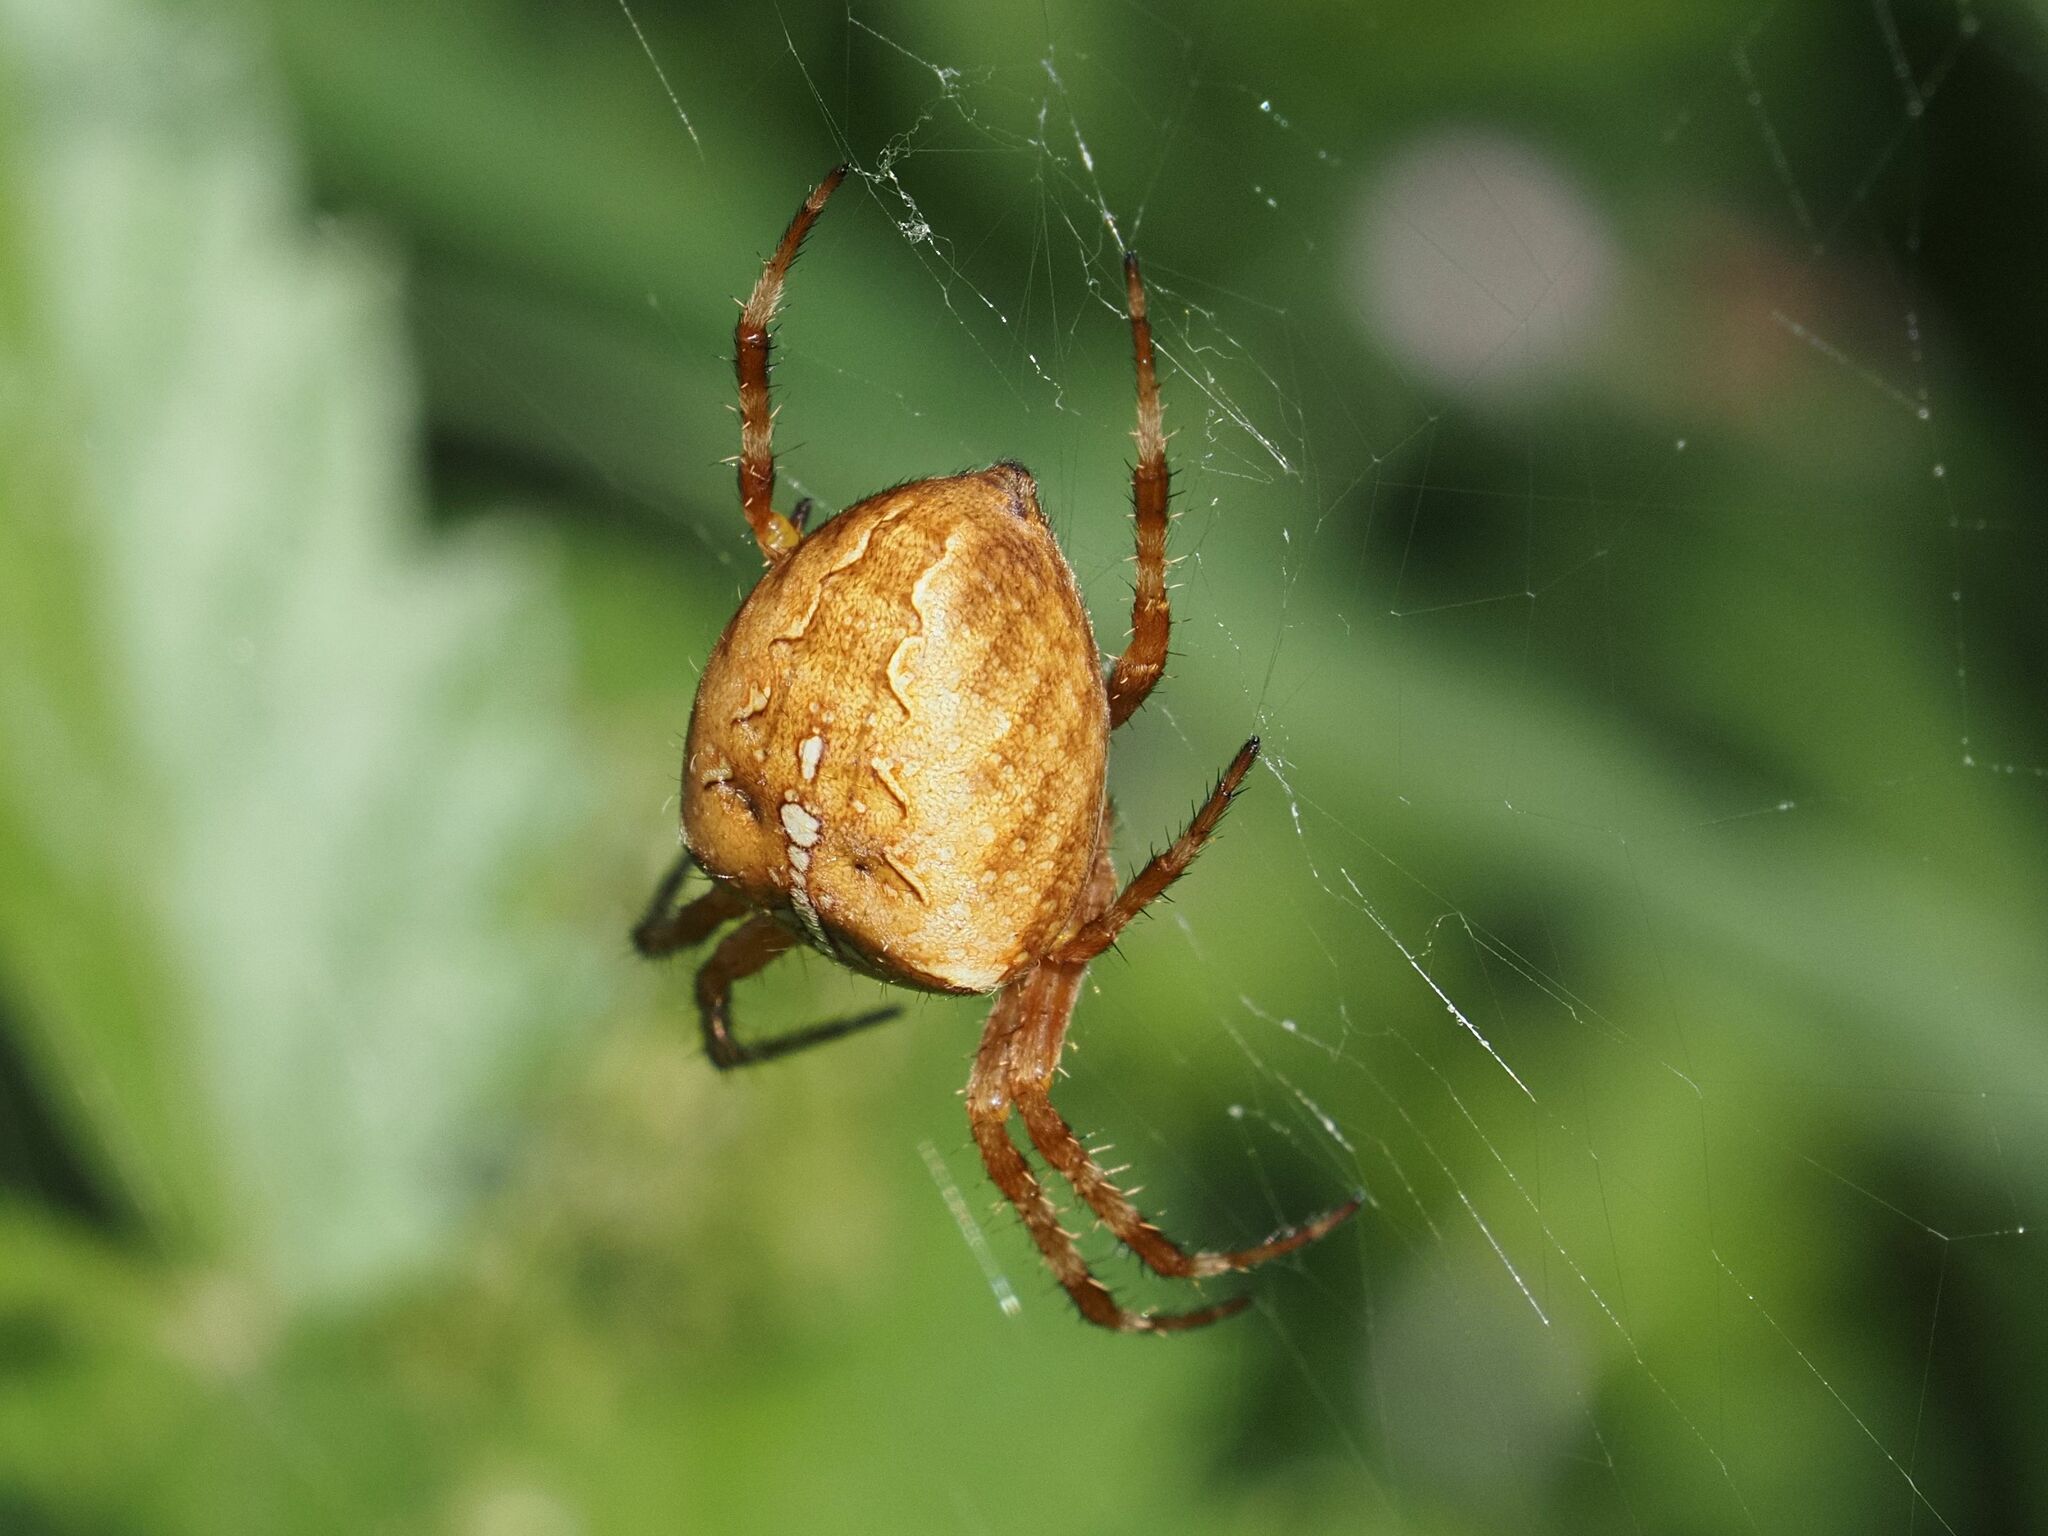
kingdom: Animalia
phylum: Arthropoda
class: Arachnida
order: Araneae
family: Araneidae
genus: Araneus
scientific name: Araneus diadematus
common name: Cross orbweaver
